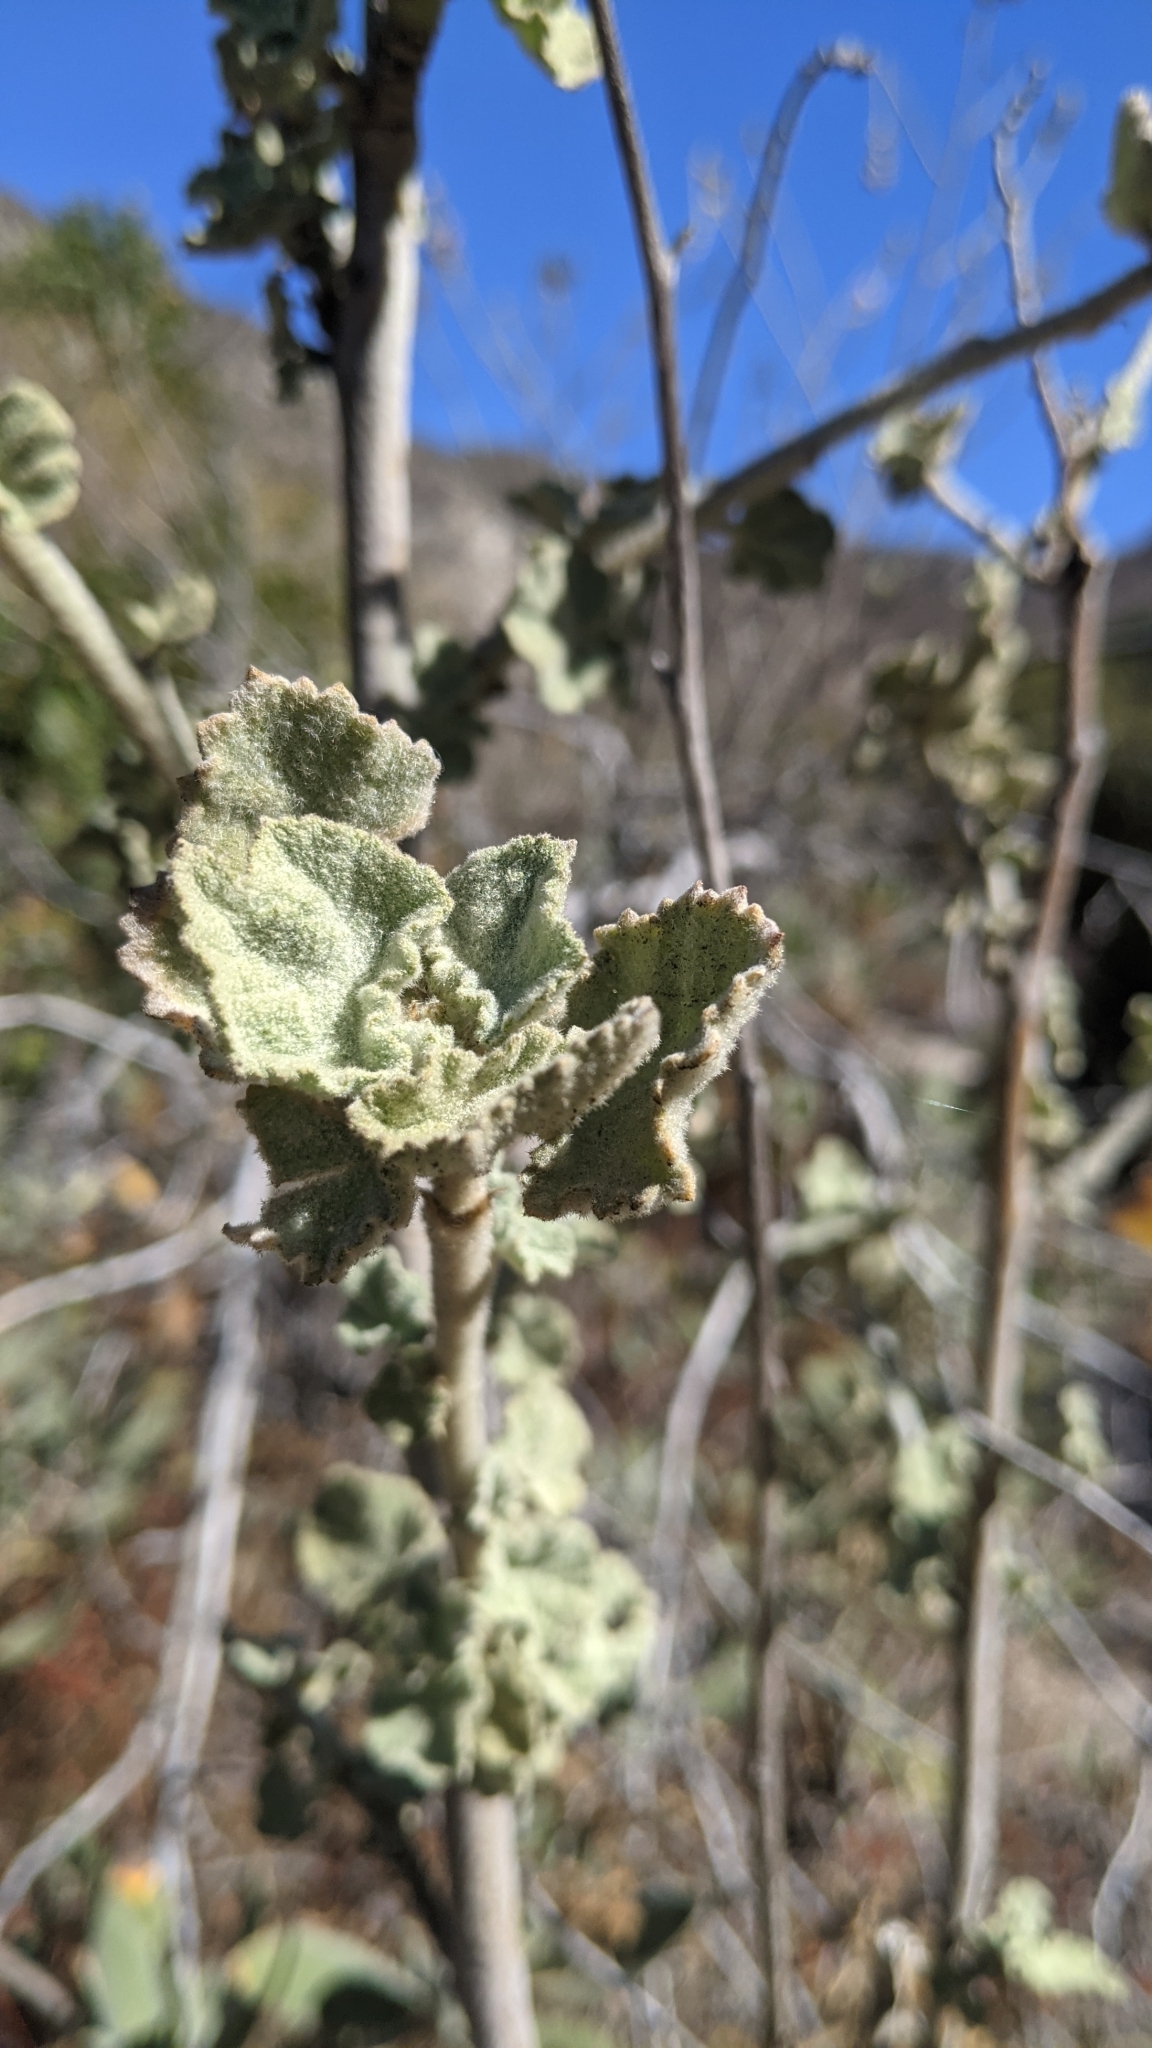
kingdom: Plantae
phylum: Tracheophyta
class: Magnoliopsida
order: Malvales
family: Malvaceae
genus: Malacothamnus
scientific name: Malacothamnus davidsonii
